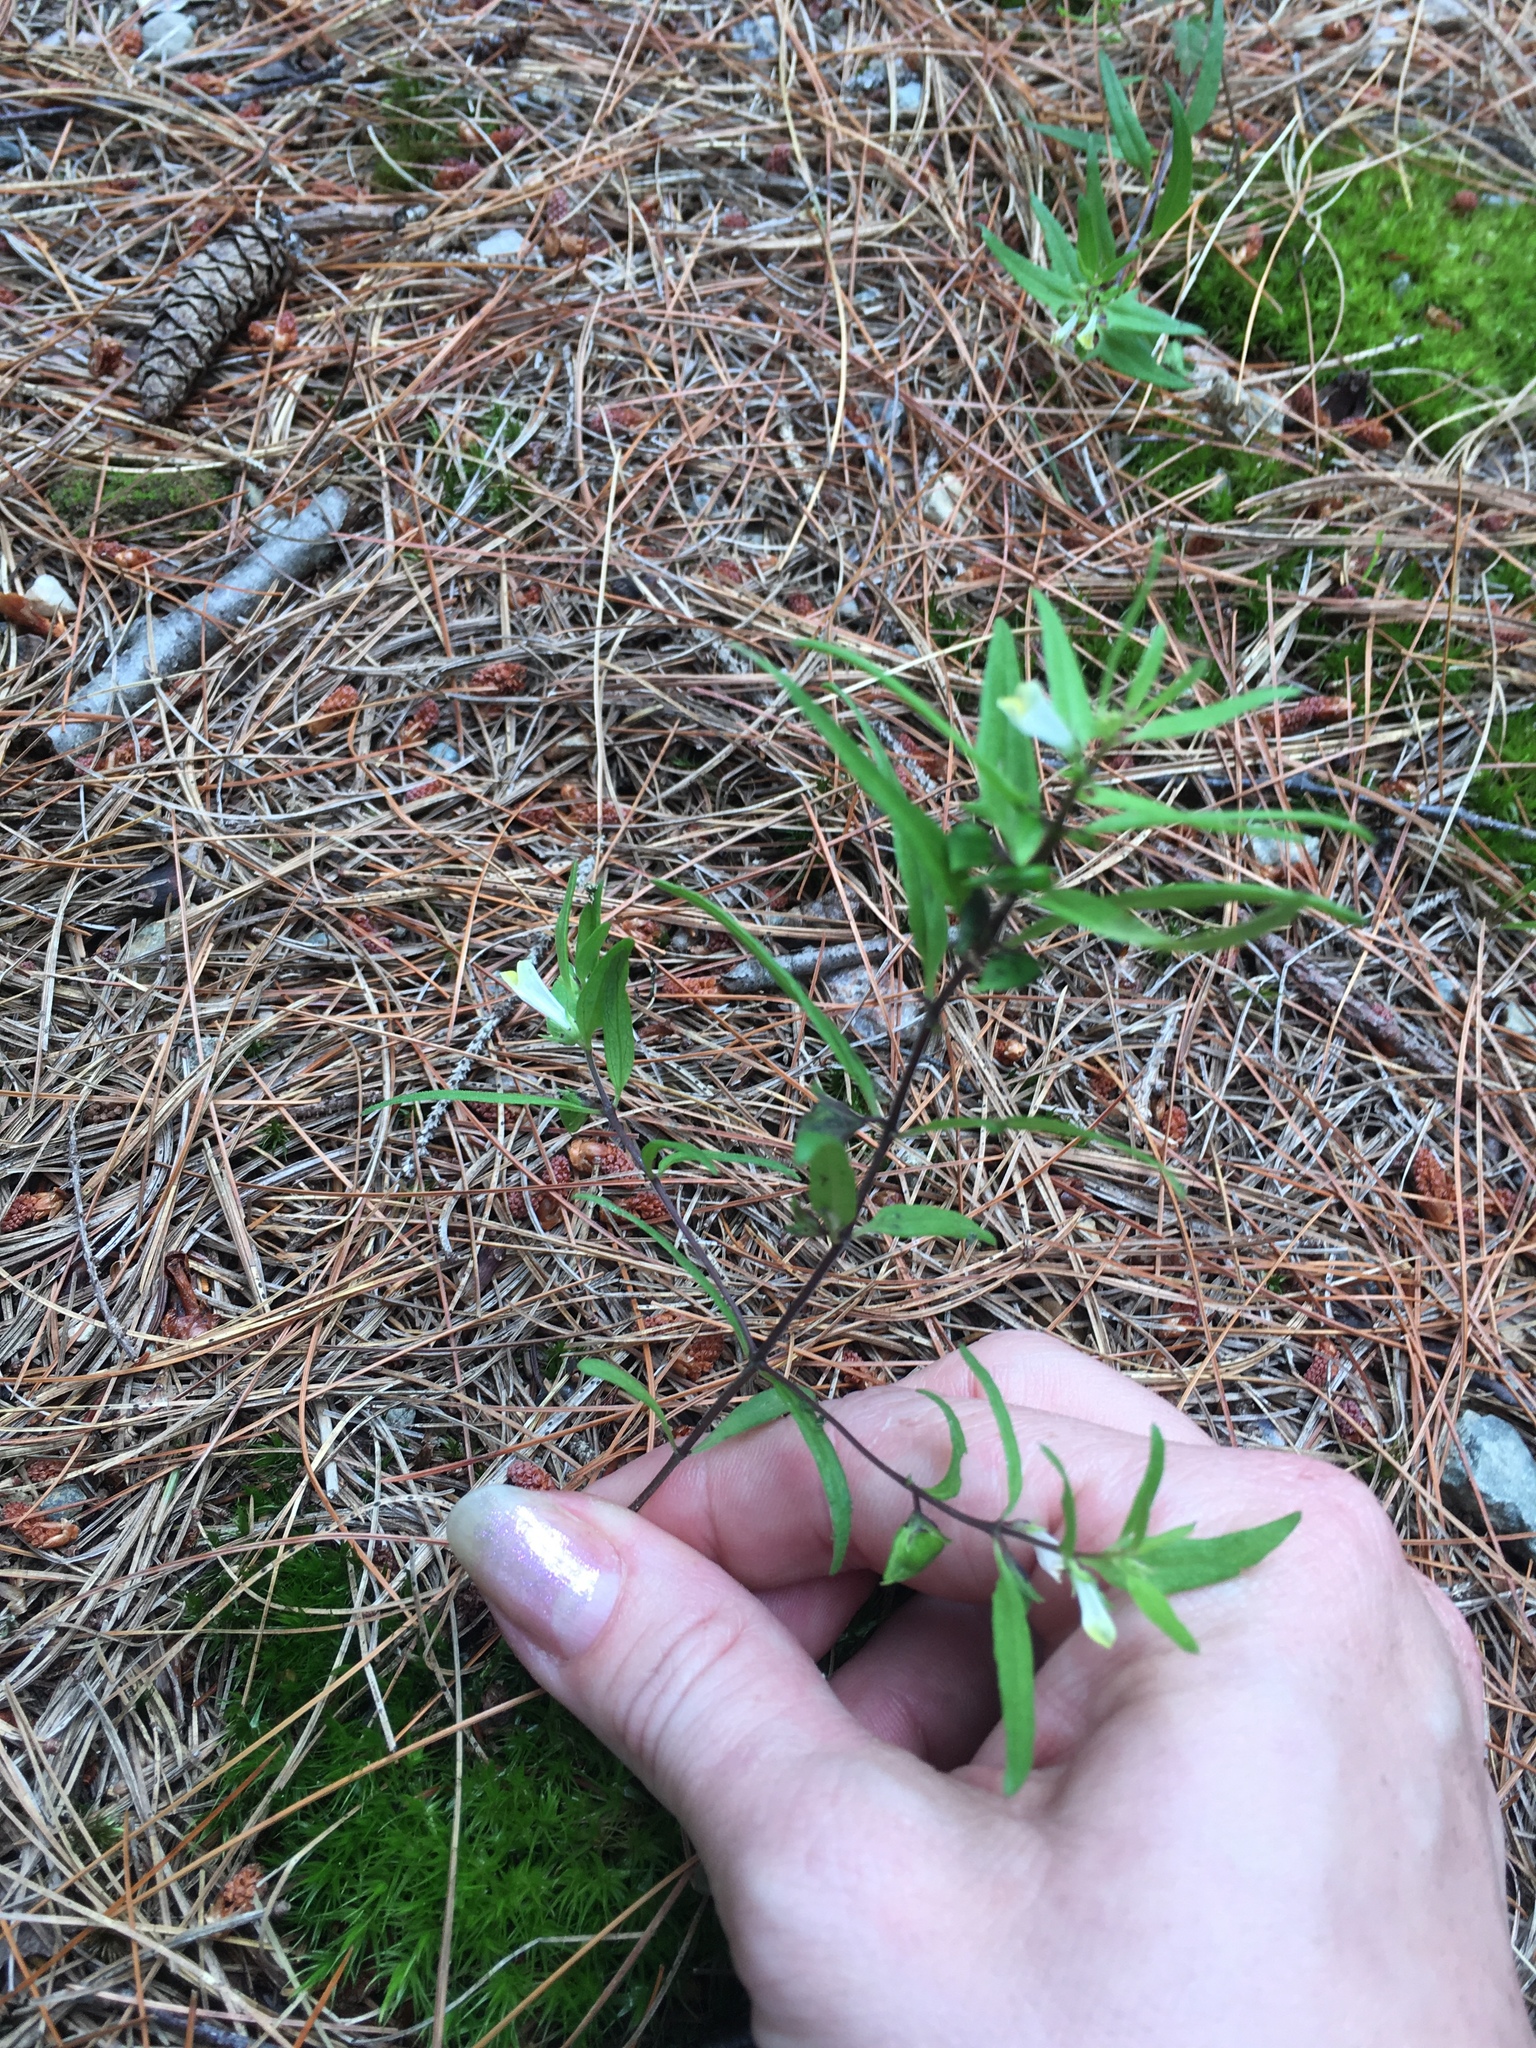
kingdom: Plantae
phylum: Tracheophyta
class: Magnoliopsida
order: Lamiales
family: Orobanchaceae
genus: Melampyrum
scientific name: Melampyrum lineare
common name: American cow-wheat
